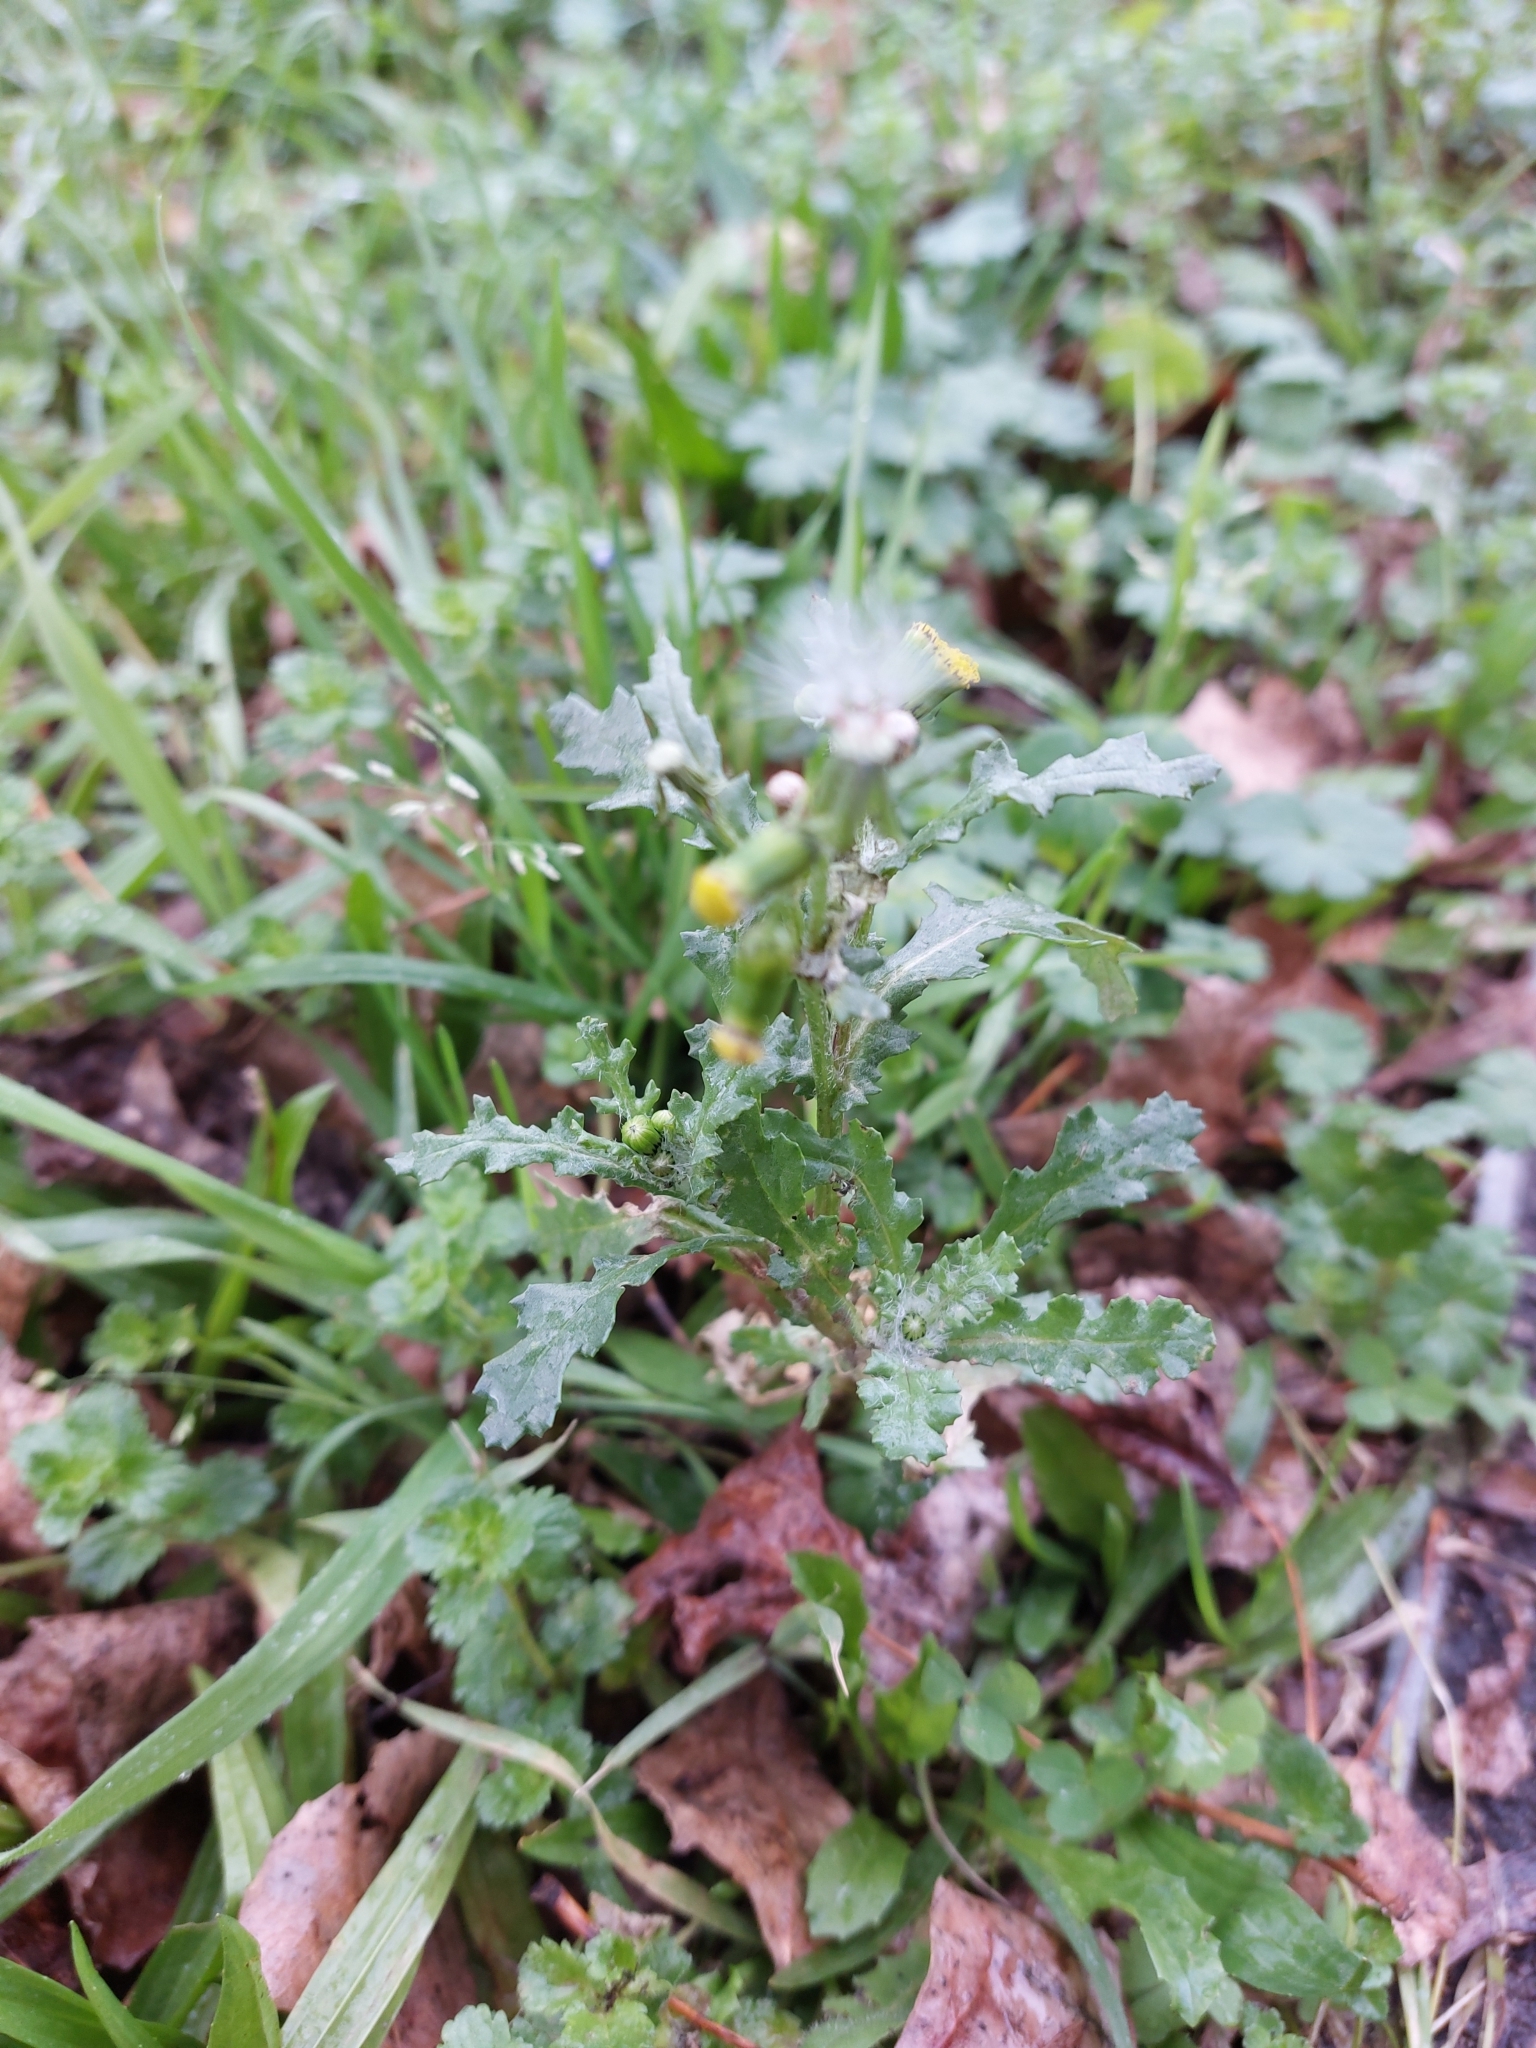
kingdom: Plantae
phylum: Tracheophyta
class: Magnoliopsida
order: Asterales
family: Asteraceae
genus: Senecio
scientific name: Senecio vulgaris
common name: Old-man-in-the-spring
